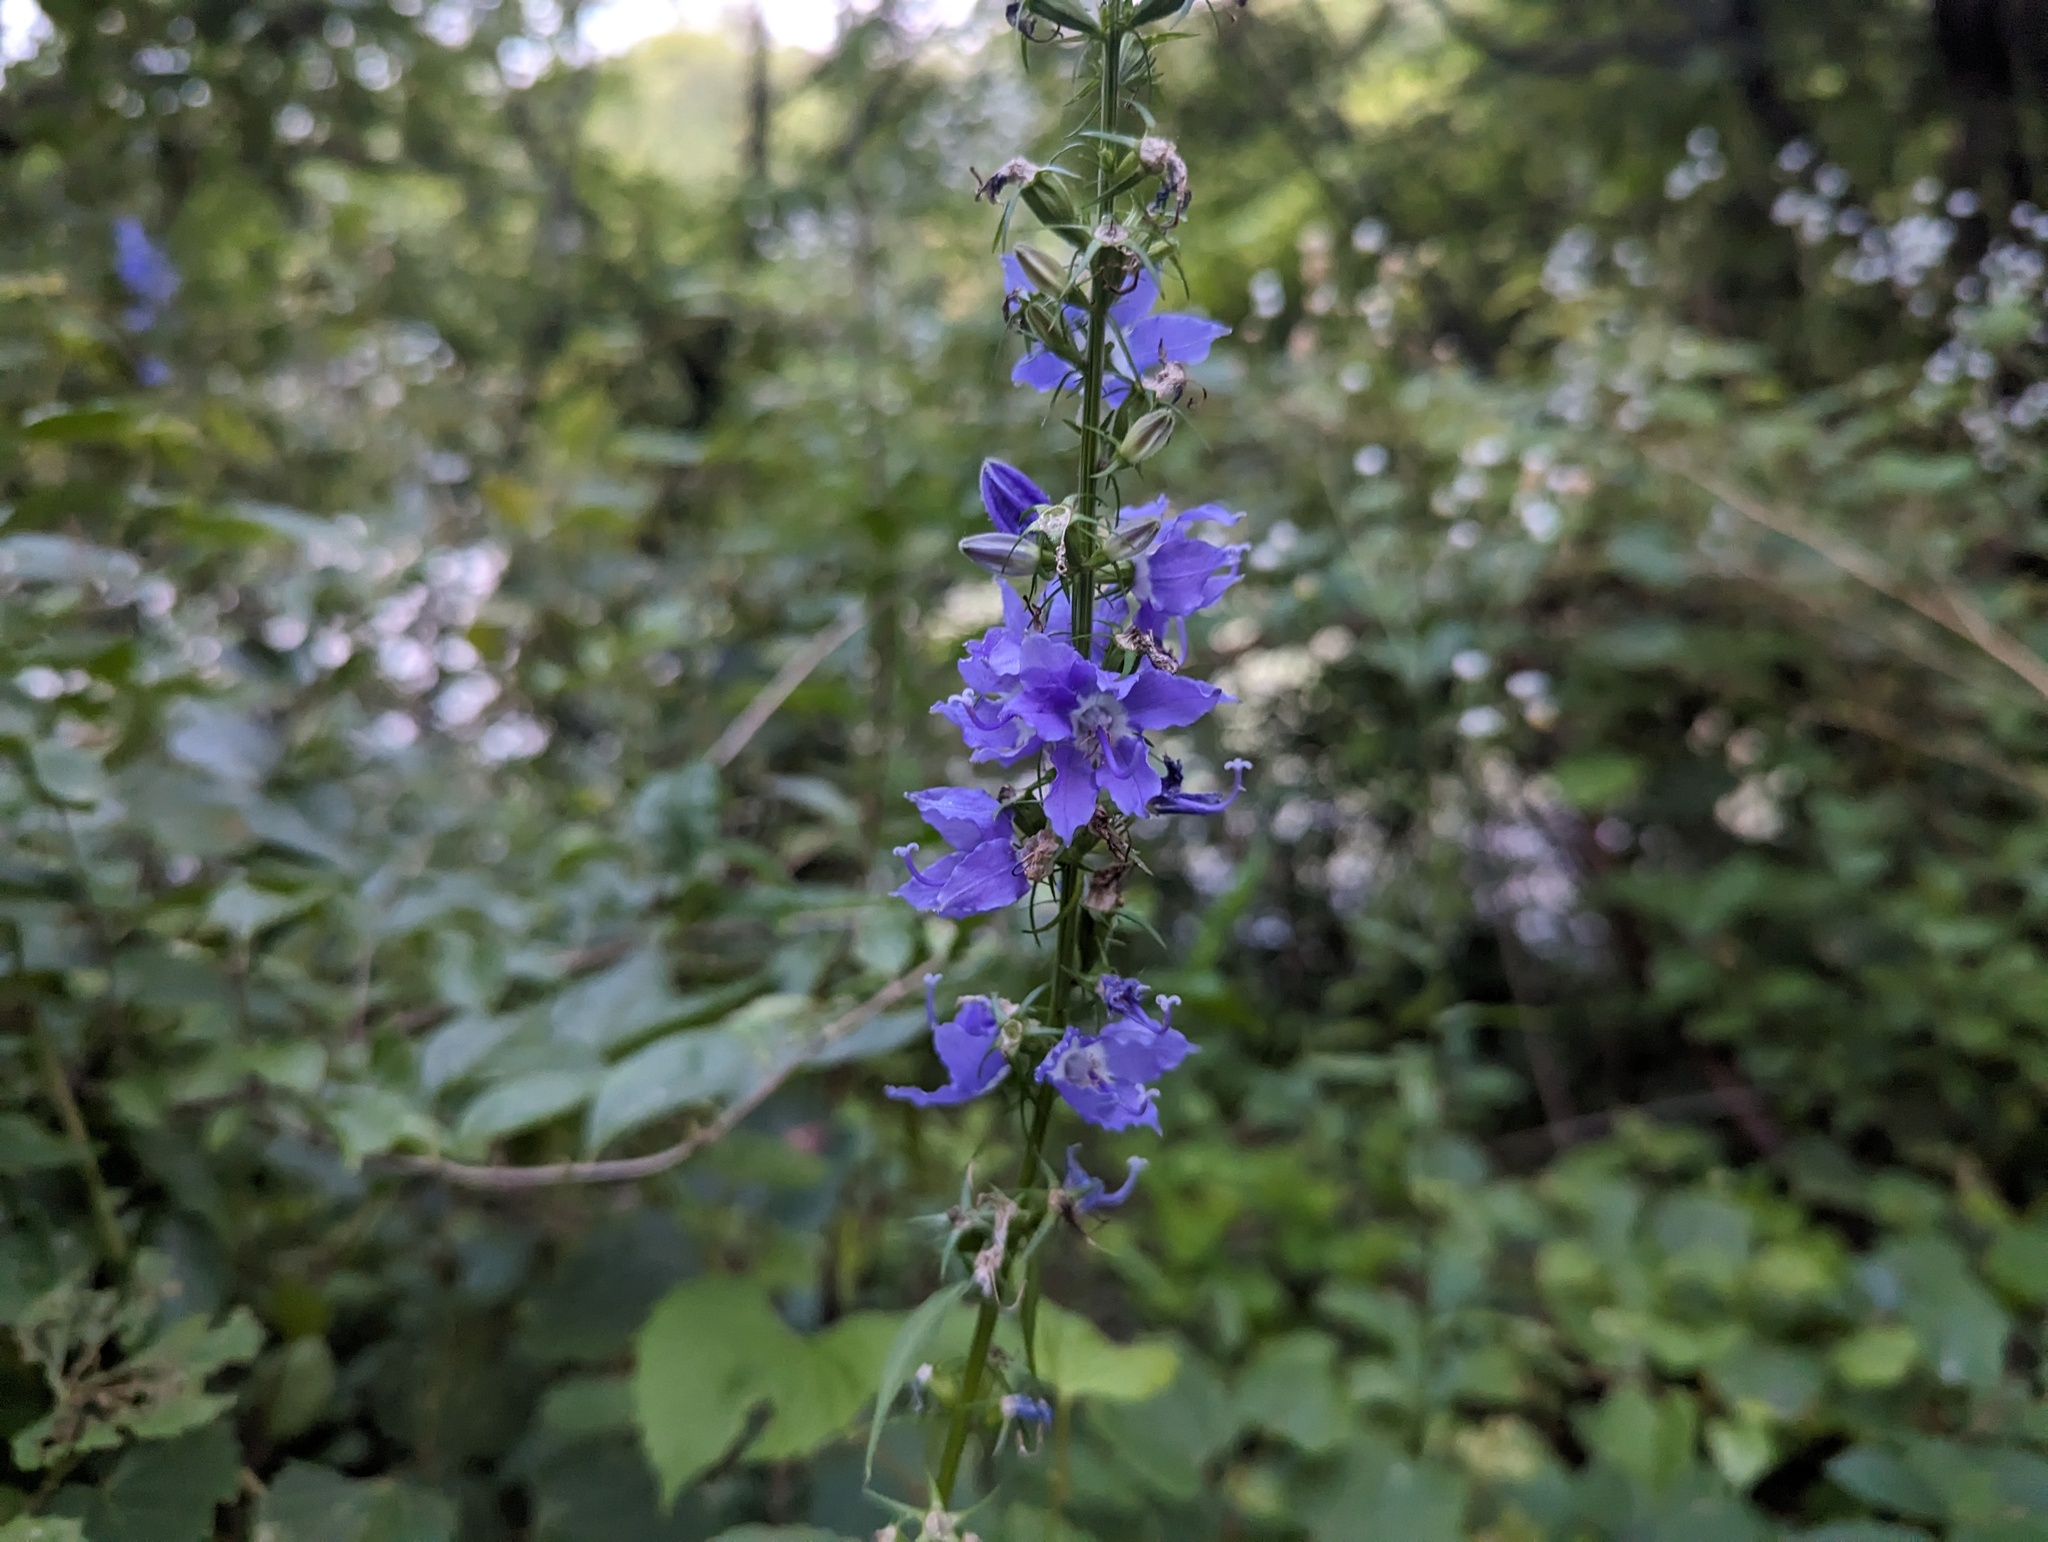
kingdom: Plantae
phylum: Tracheophyta
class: Magnoliopsida
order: Asterales
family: Campanulaceae
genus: Campanulastrum
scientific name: Campanulastrum americanum
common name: American bellflower
